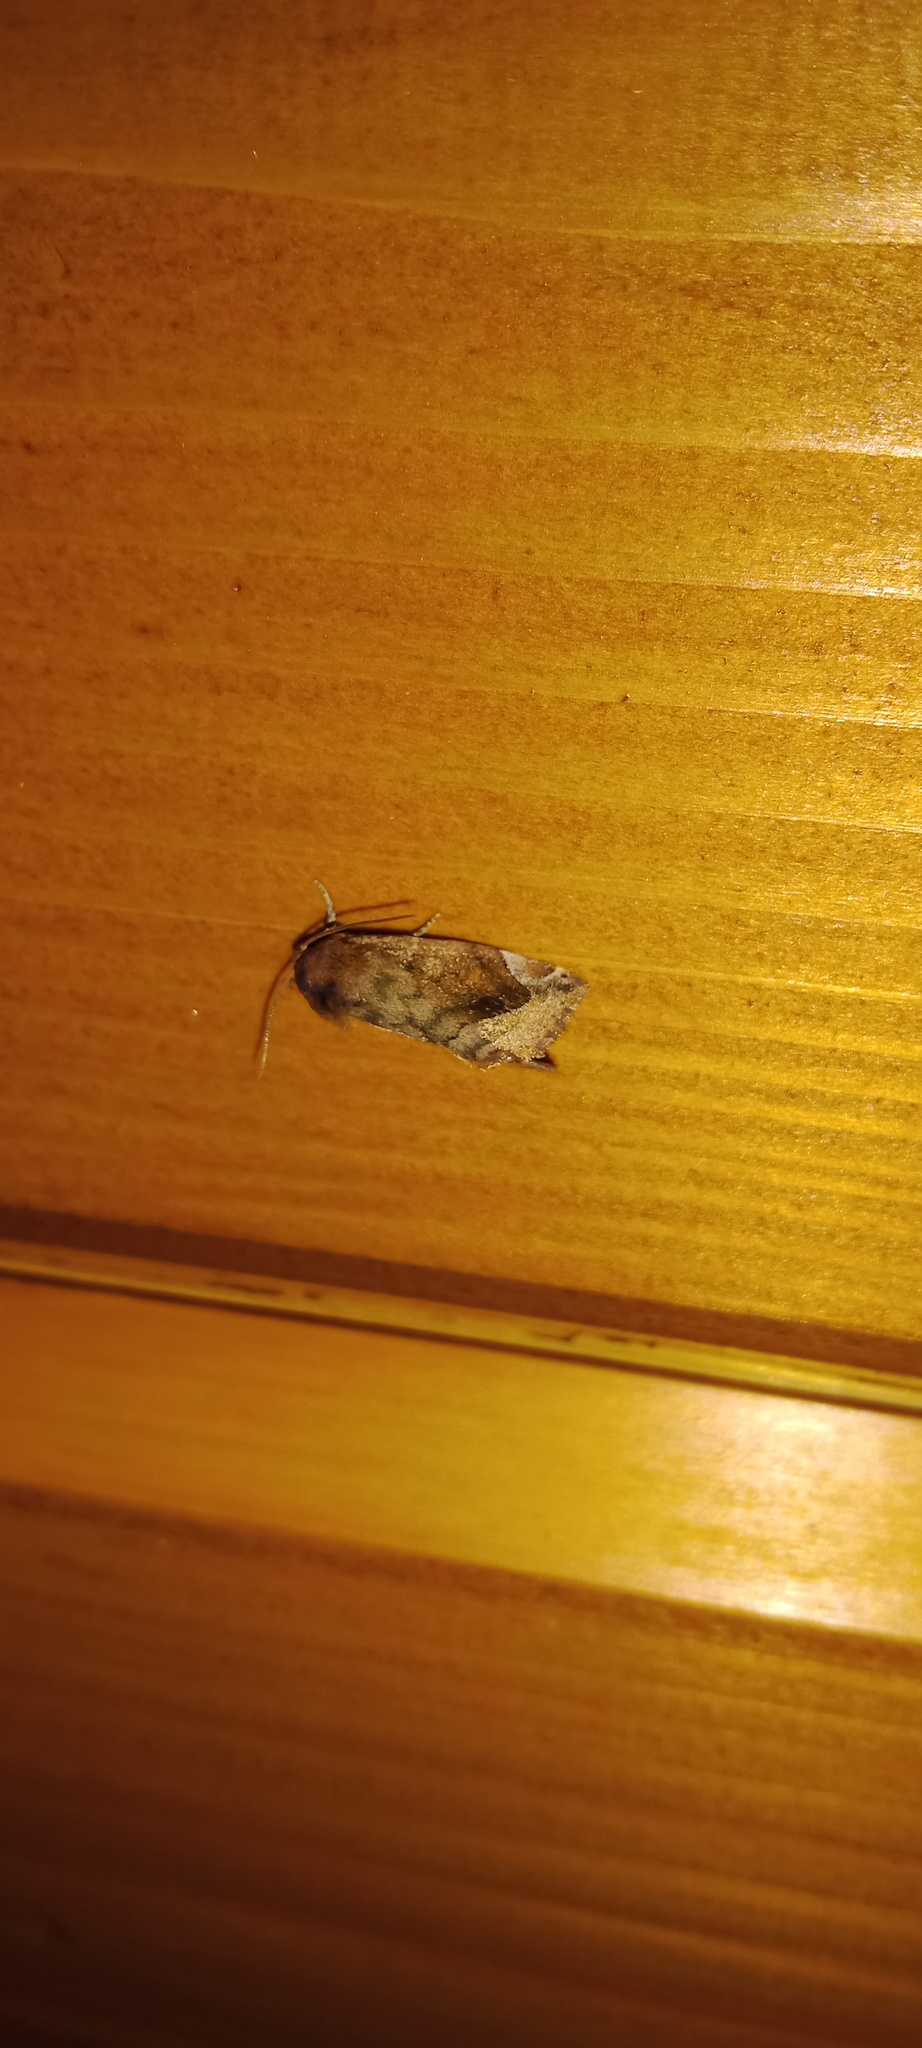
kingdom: Animalia
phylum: Arthropoda
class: Insecta
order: Lepidoptera
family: Noctuidae
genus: Cosmia
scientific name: Cosmia pyralina
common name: Lunar-spotted pinion
